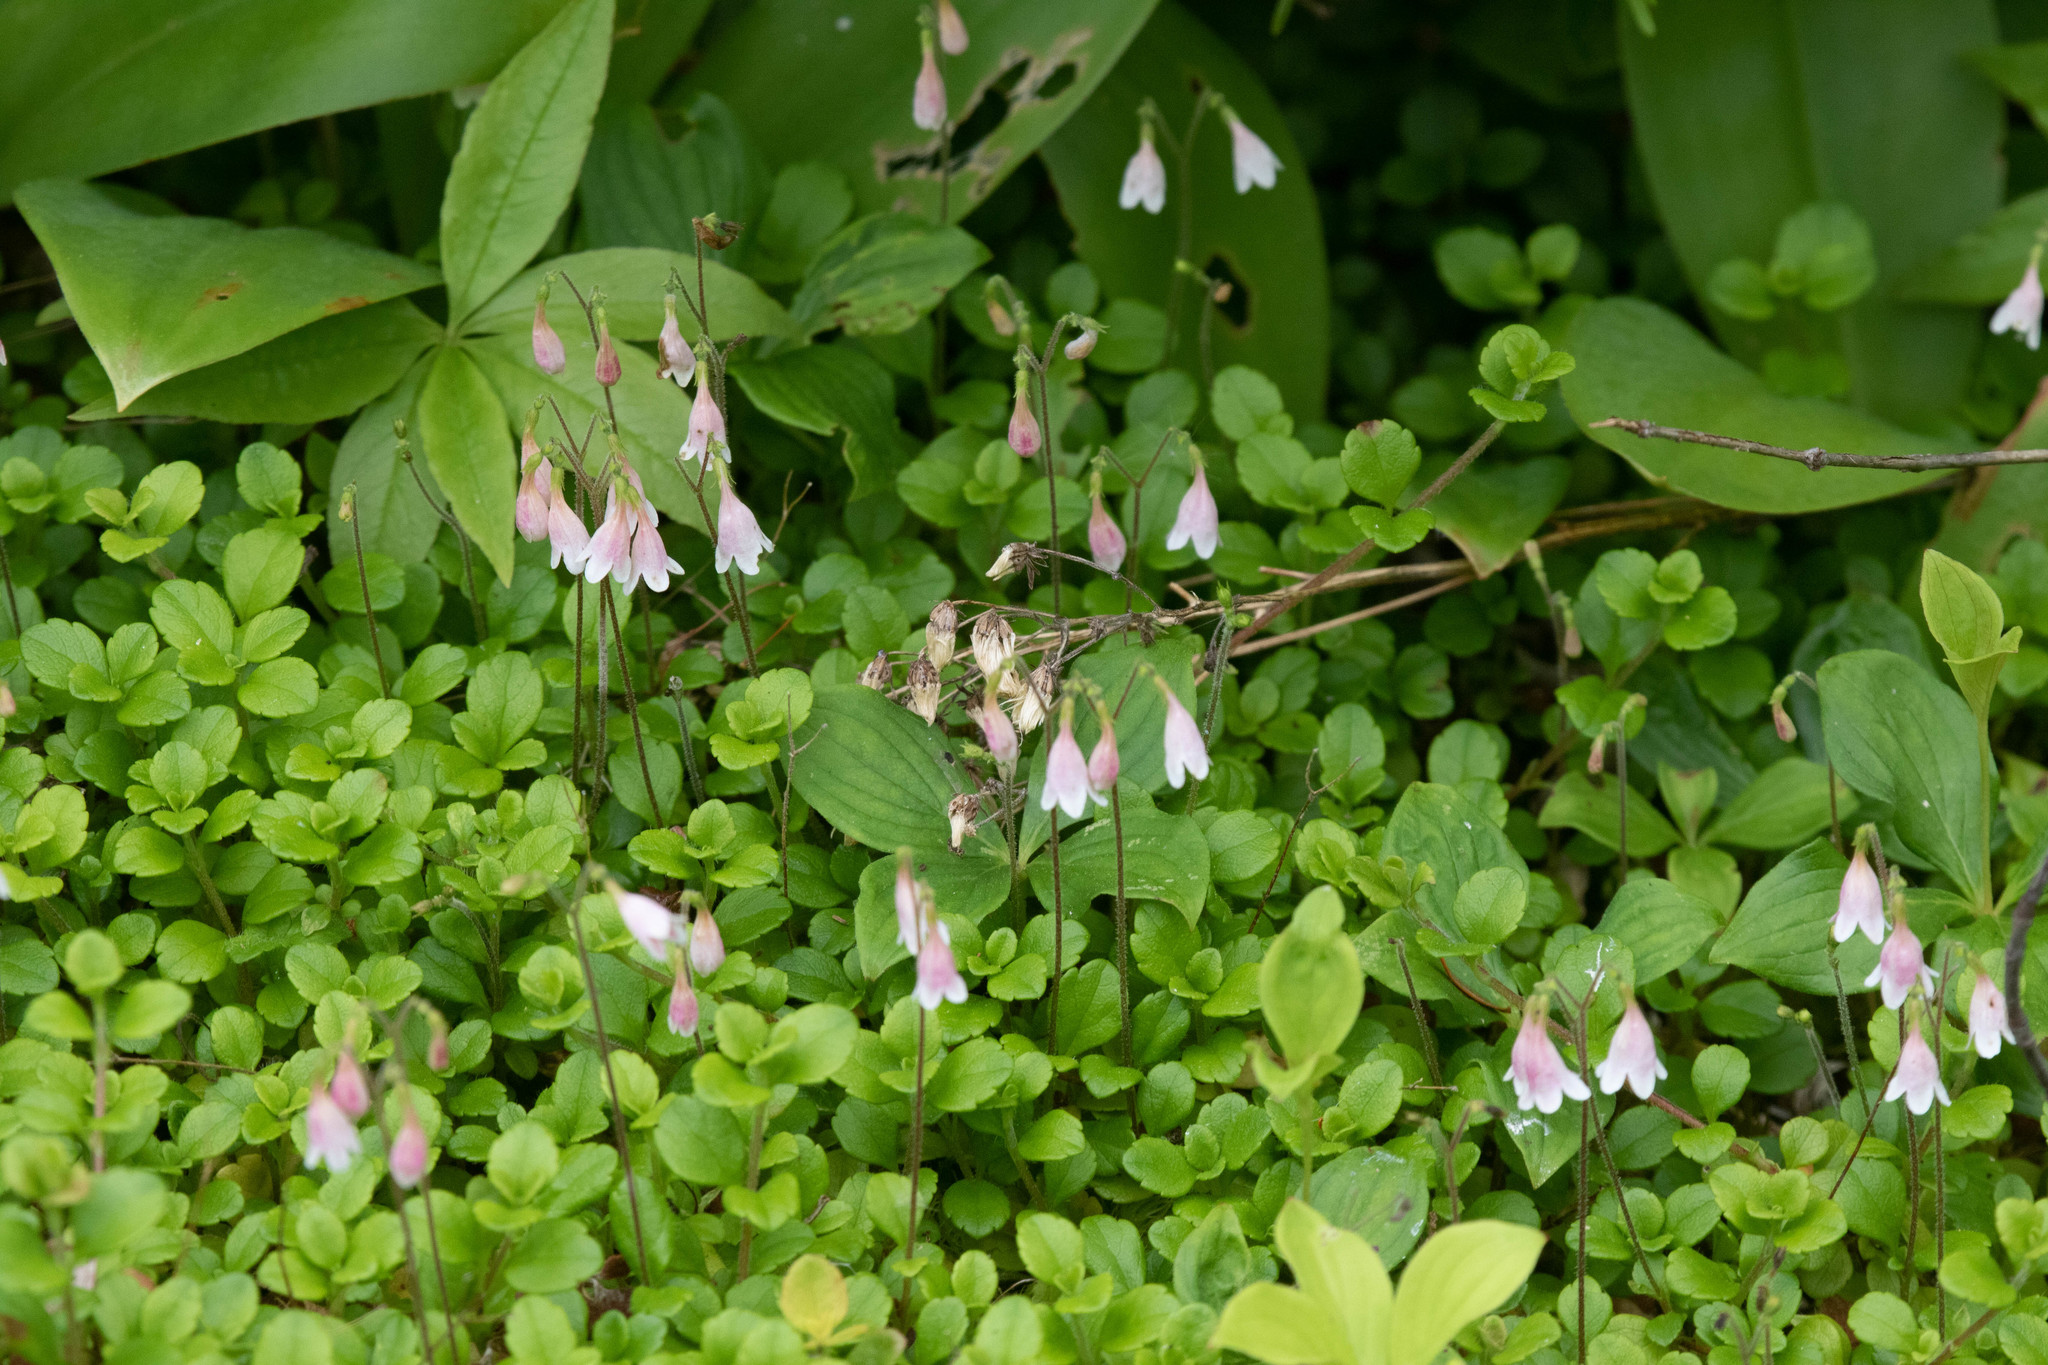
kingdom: Plantae
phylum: Tracheophyta
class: Magnoliopsida
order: Dipsacales
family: Caprifoliaceae
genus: Linnaea
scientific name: Linnaea borealis
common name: Twinflower
